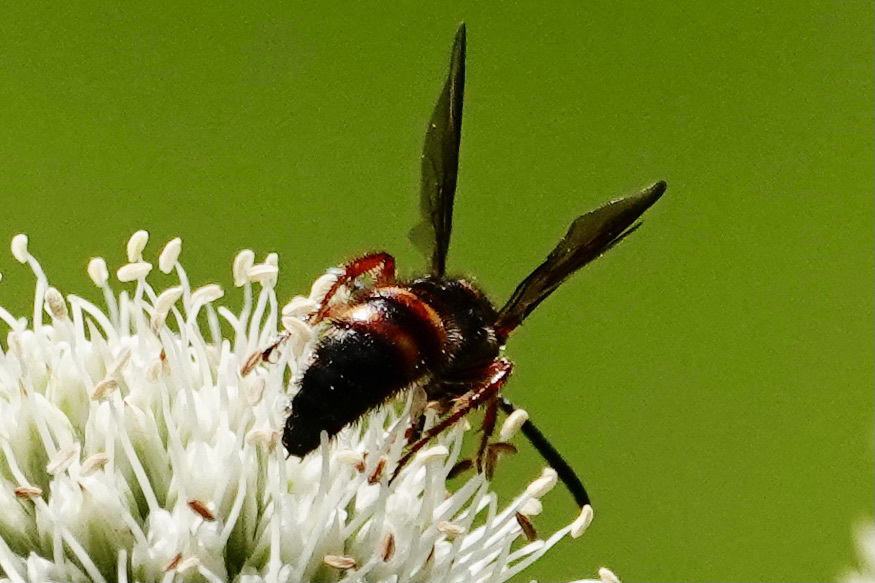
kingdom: Animalia
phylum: Arthropoda
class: Insecta
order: Hymenoptera
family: Scoliidae
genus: Scolia
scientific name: Scolia nobilitata
